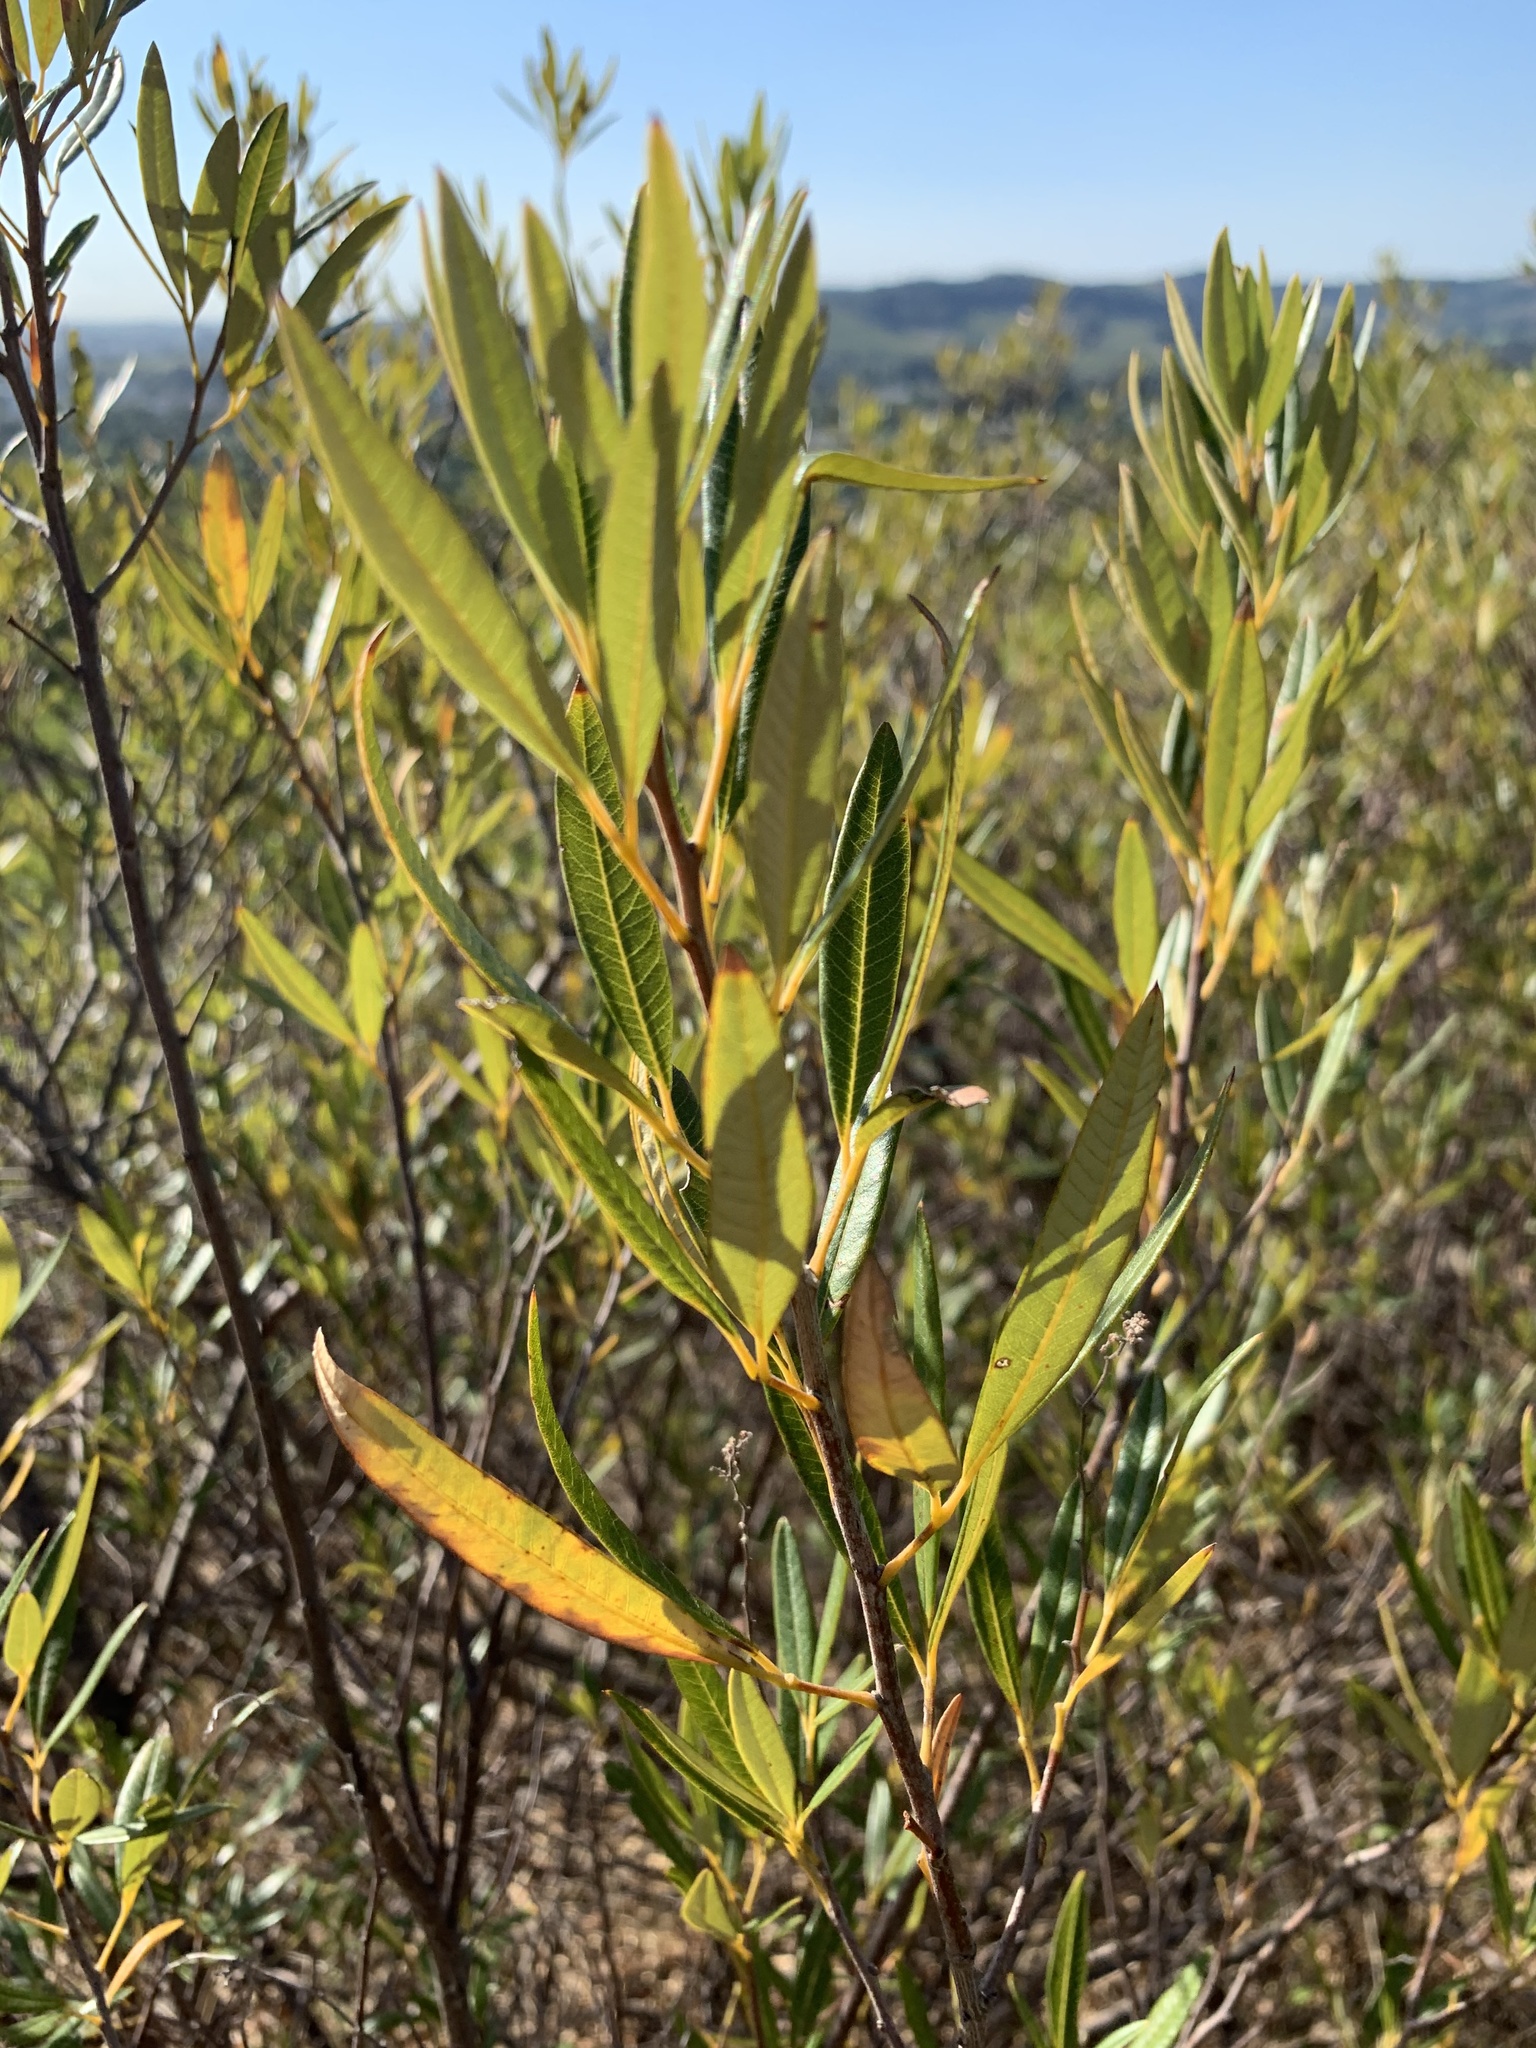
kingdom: Plantae
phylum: Tracheophyta
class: Magnoliopsida
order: Sapindales
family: Anacardiaceae
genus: Searsia
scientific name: Searsia angustifolia
